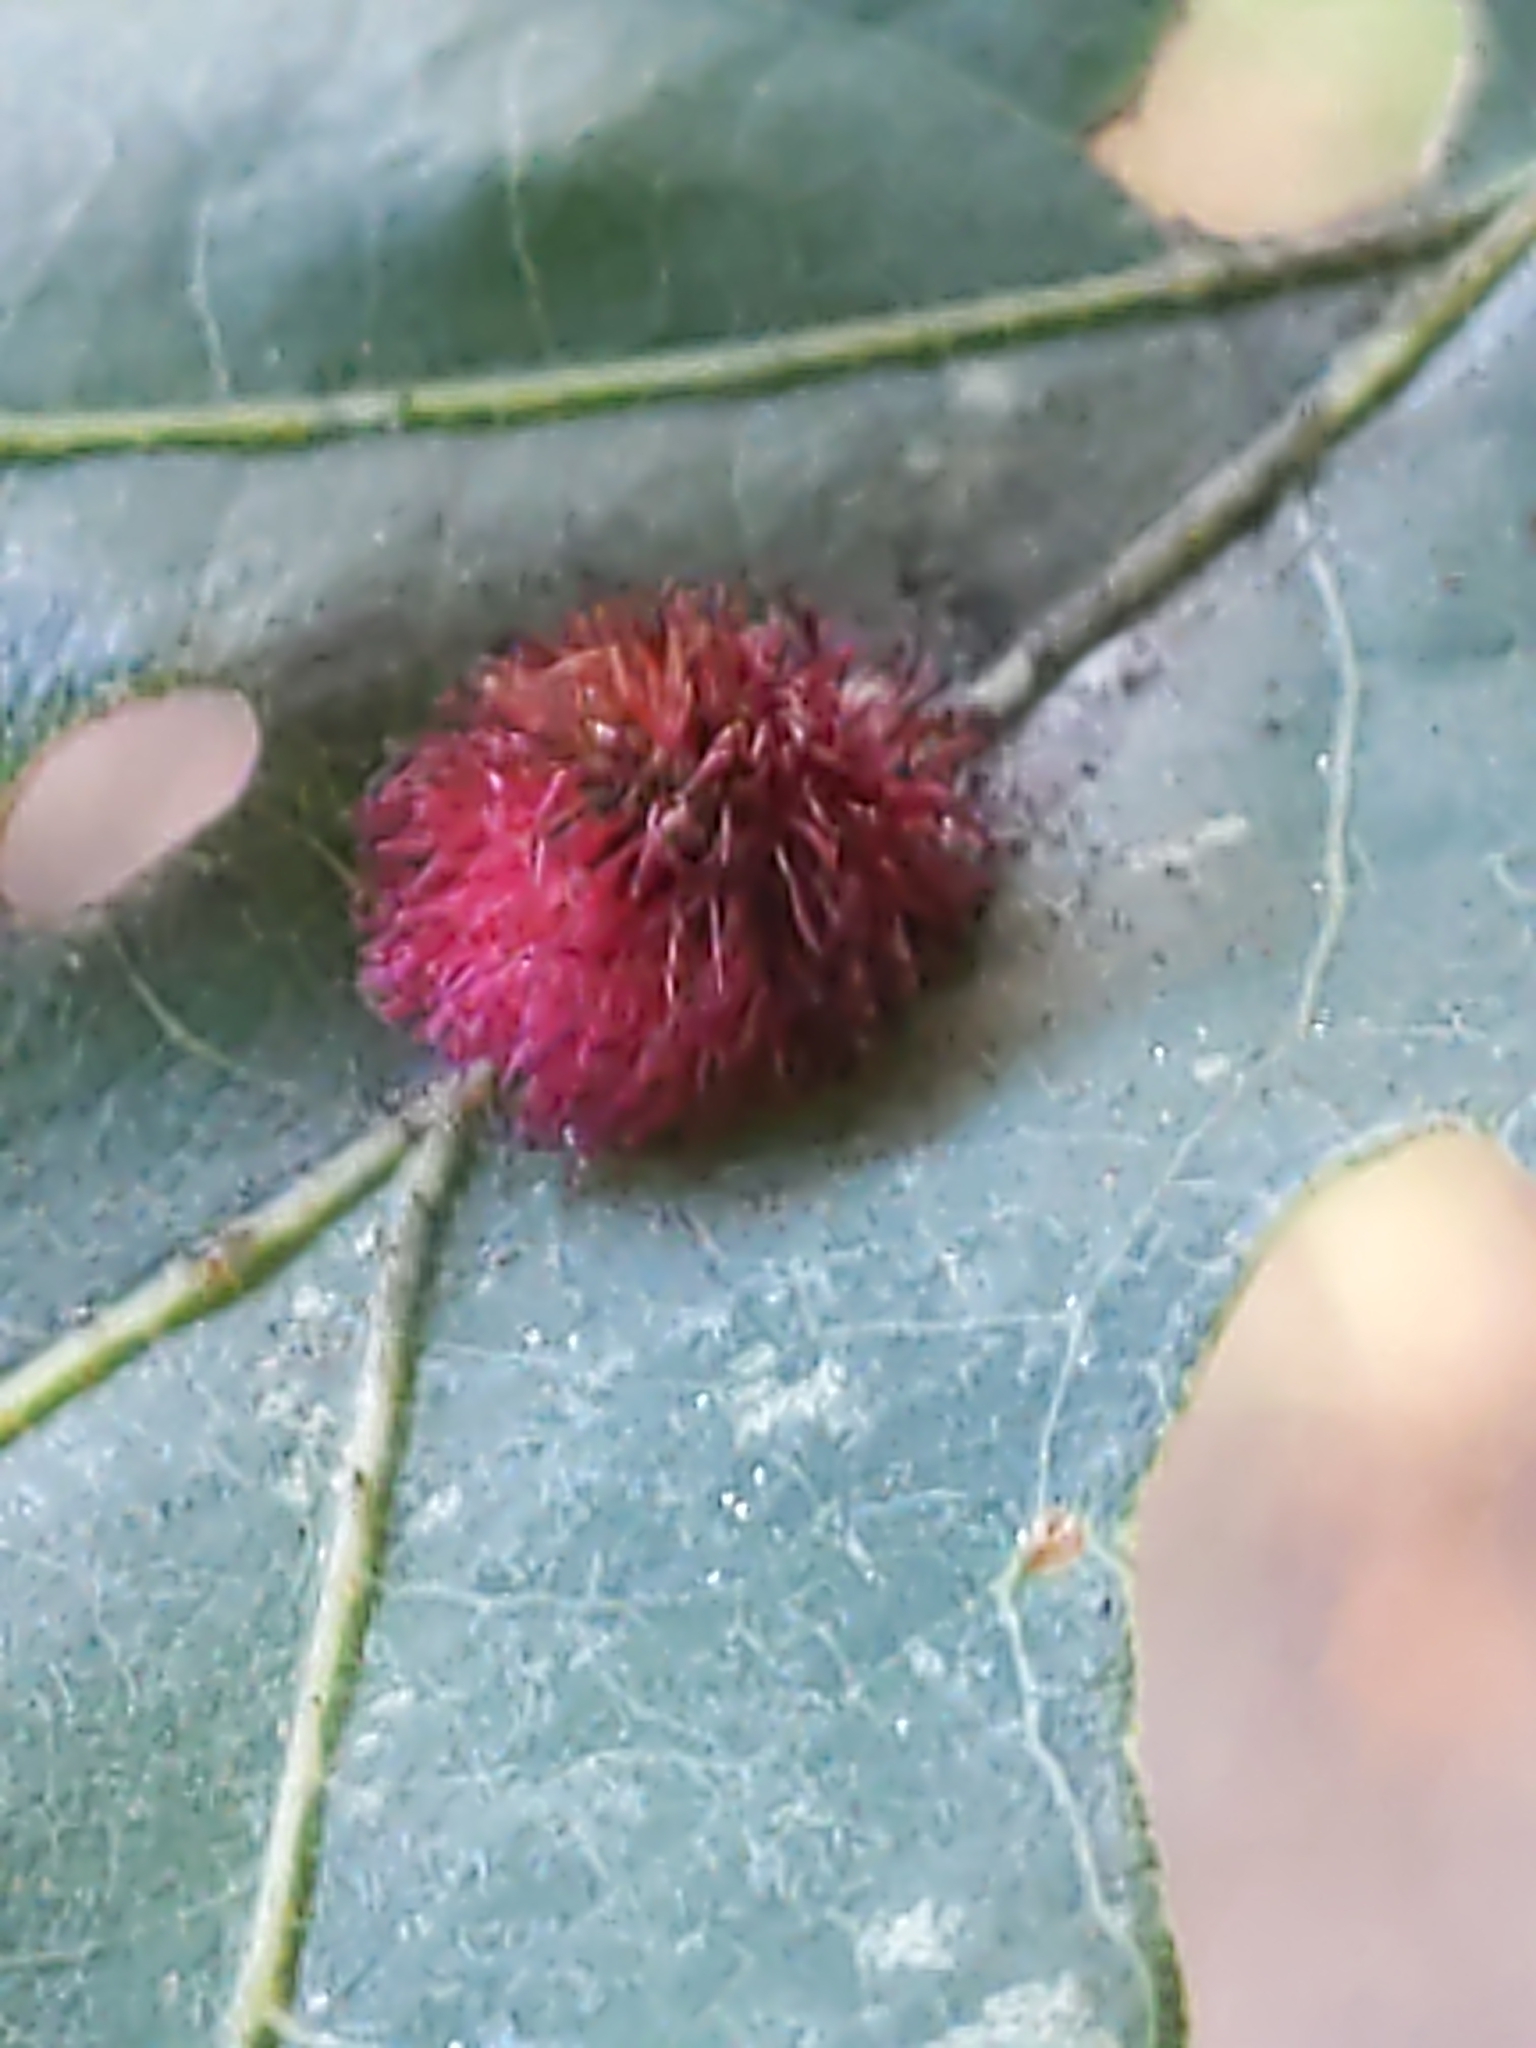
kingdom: Animalia
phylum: Arthropoda
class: Insecta
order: Hymenoptera
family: Cynipidae
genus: Acraspis
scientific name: Acraspis erinacei
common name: Hedgehog gall wasp
